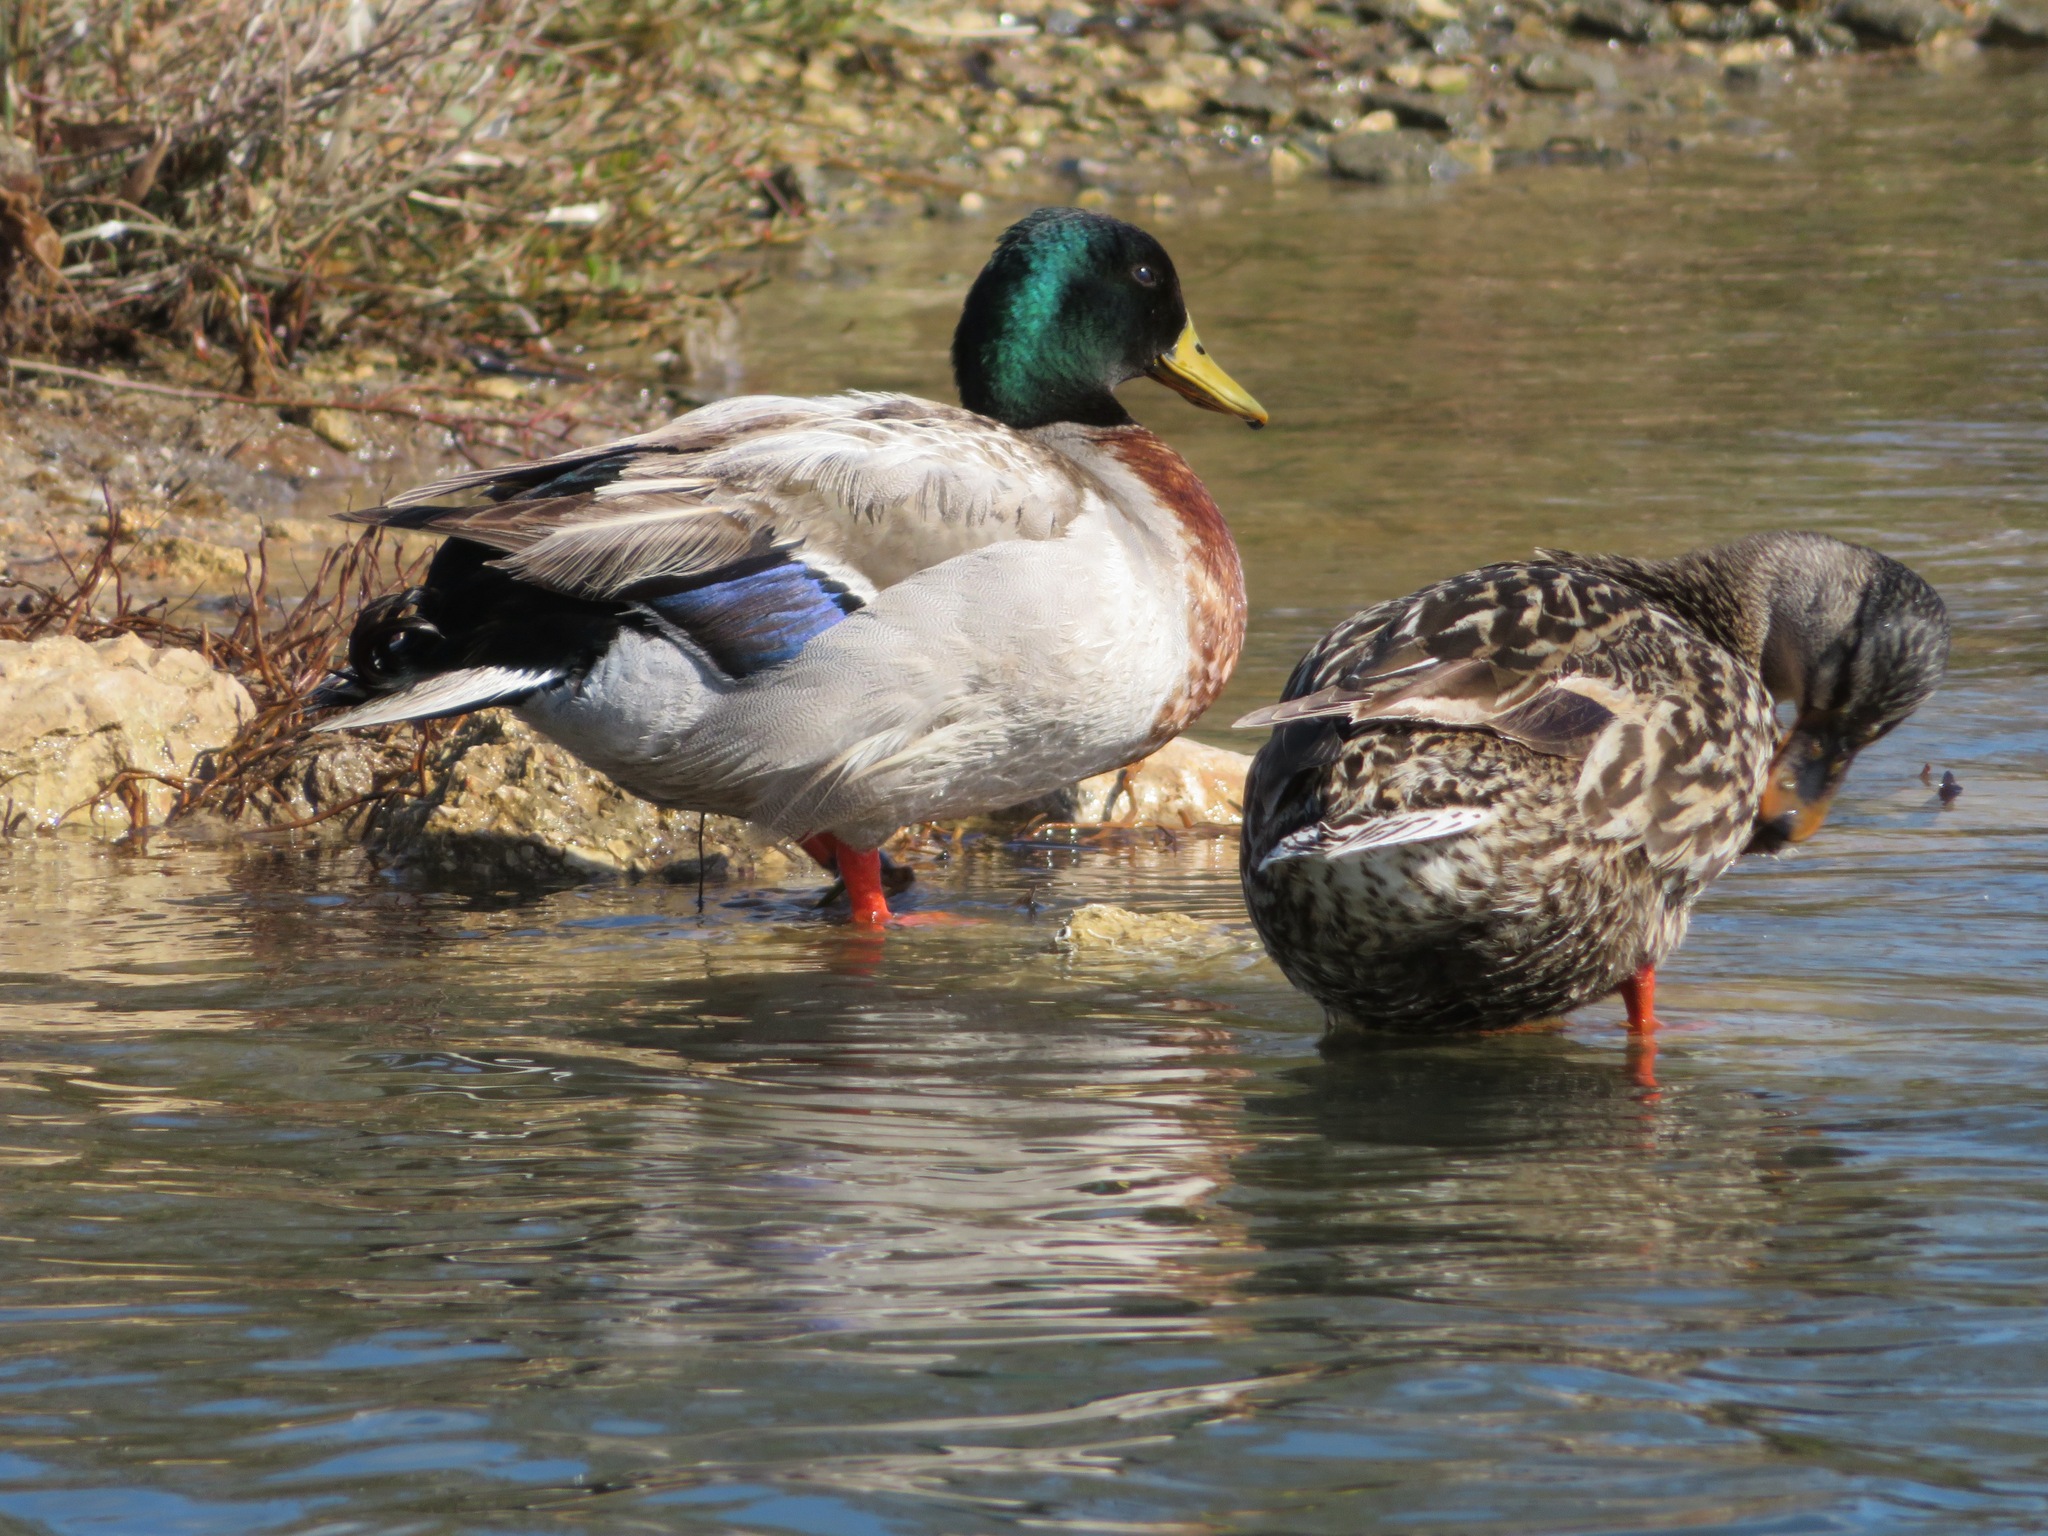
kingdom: Animalia
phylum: Chordata
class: Aves
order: Anseriformes
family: Anatidae
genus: Anas
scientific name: Anas platyrhynchos
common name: Mallard
